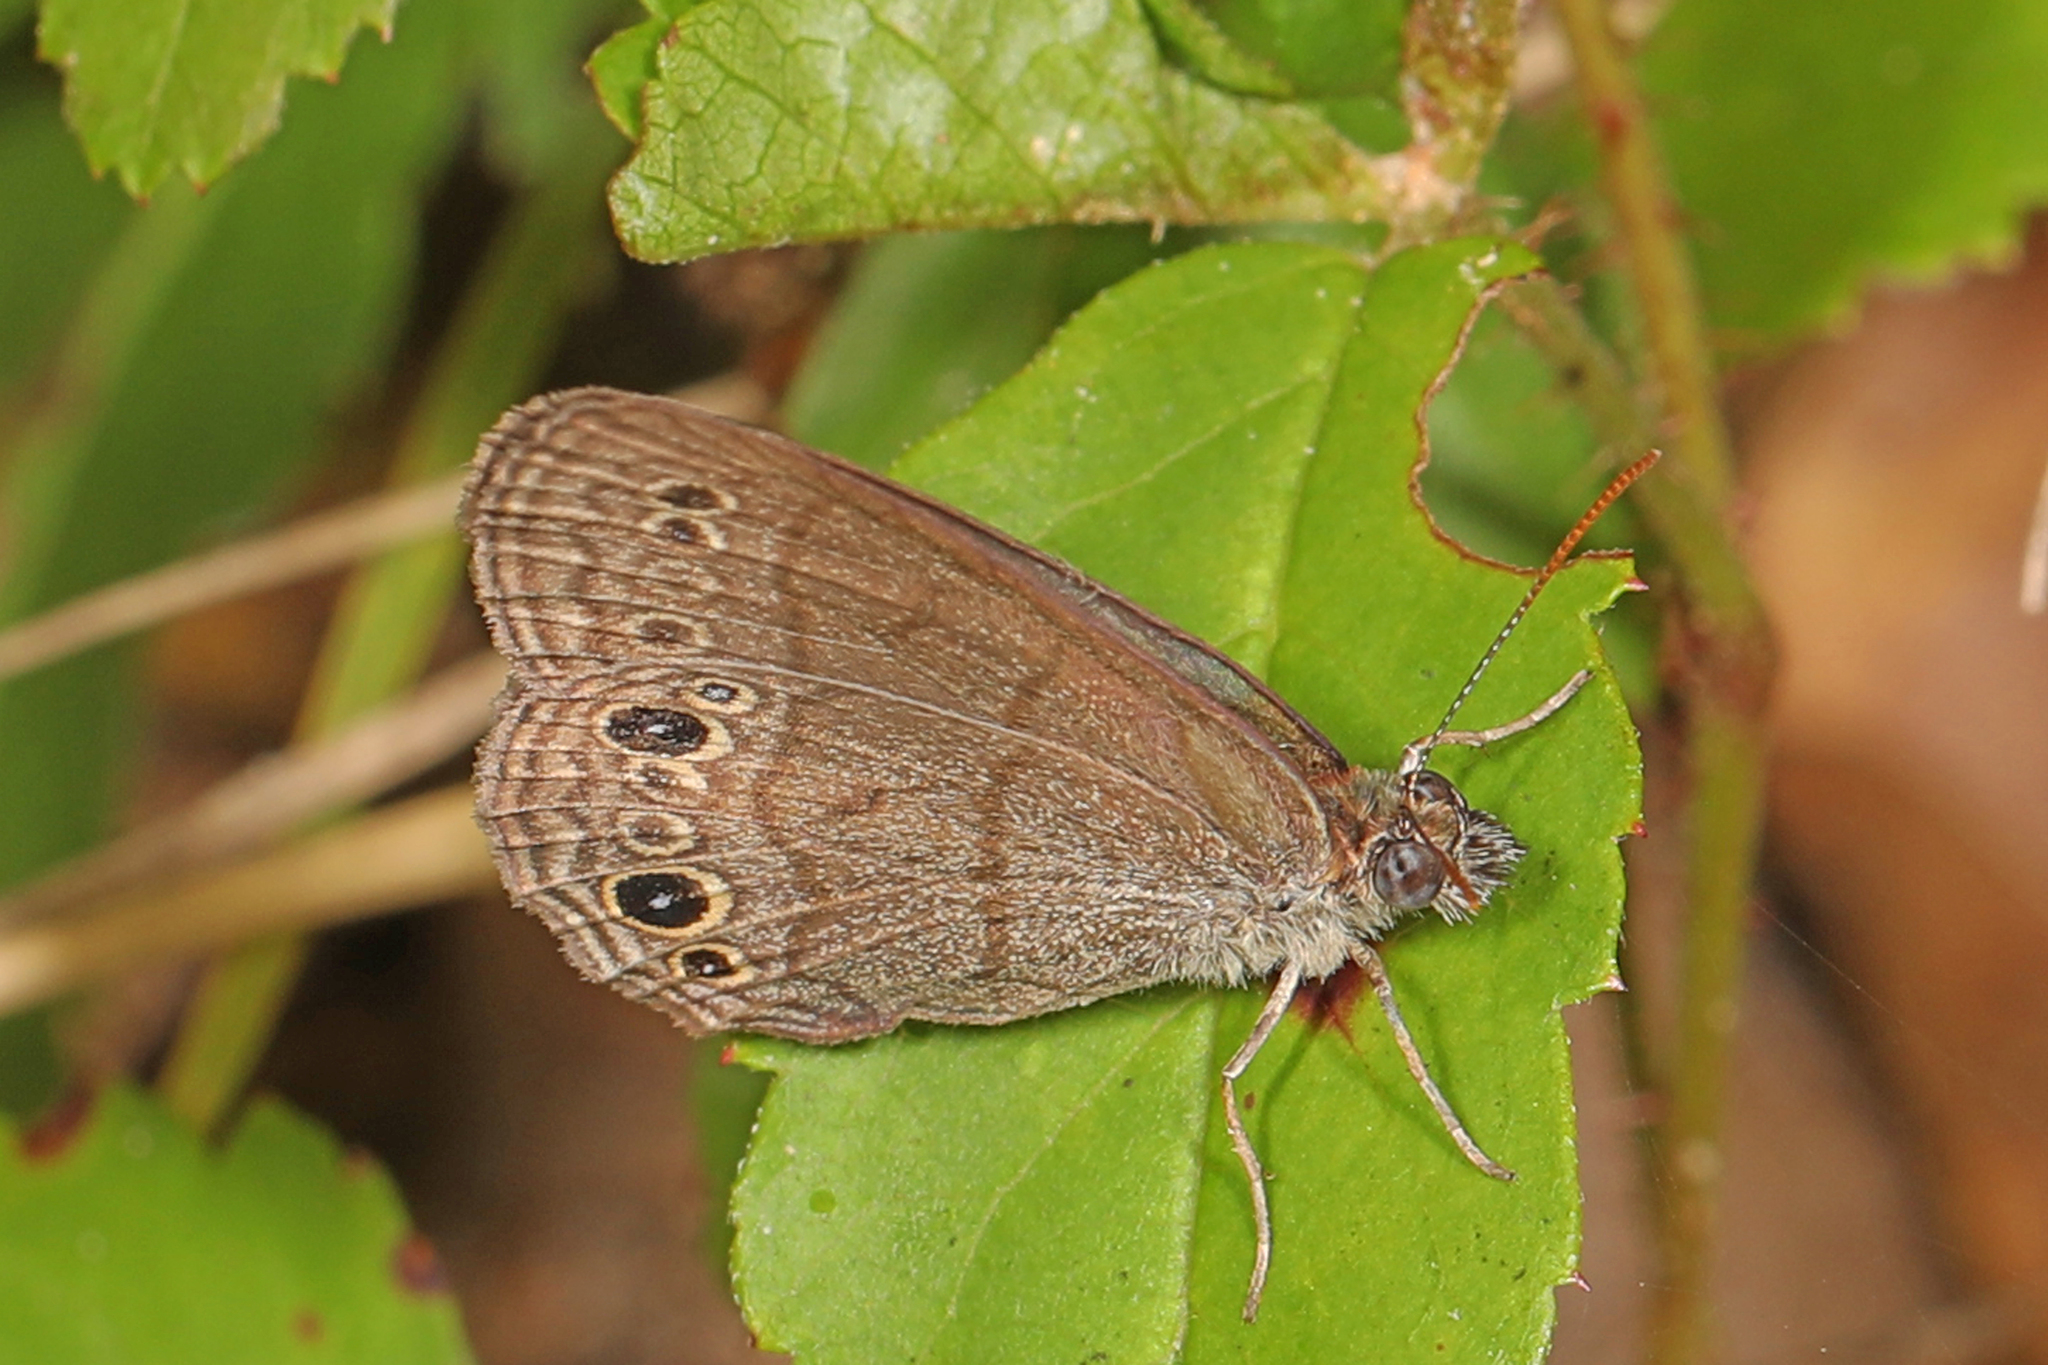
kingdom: Animalia
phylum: Arthropoda
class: Insecta
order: Lepidoptera
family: Nymphalidae
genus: Hermeuptychia
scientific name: Hermeuptychia hermes
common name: Hermes satyr
